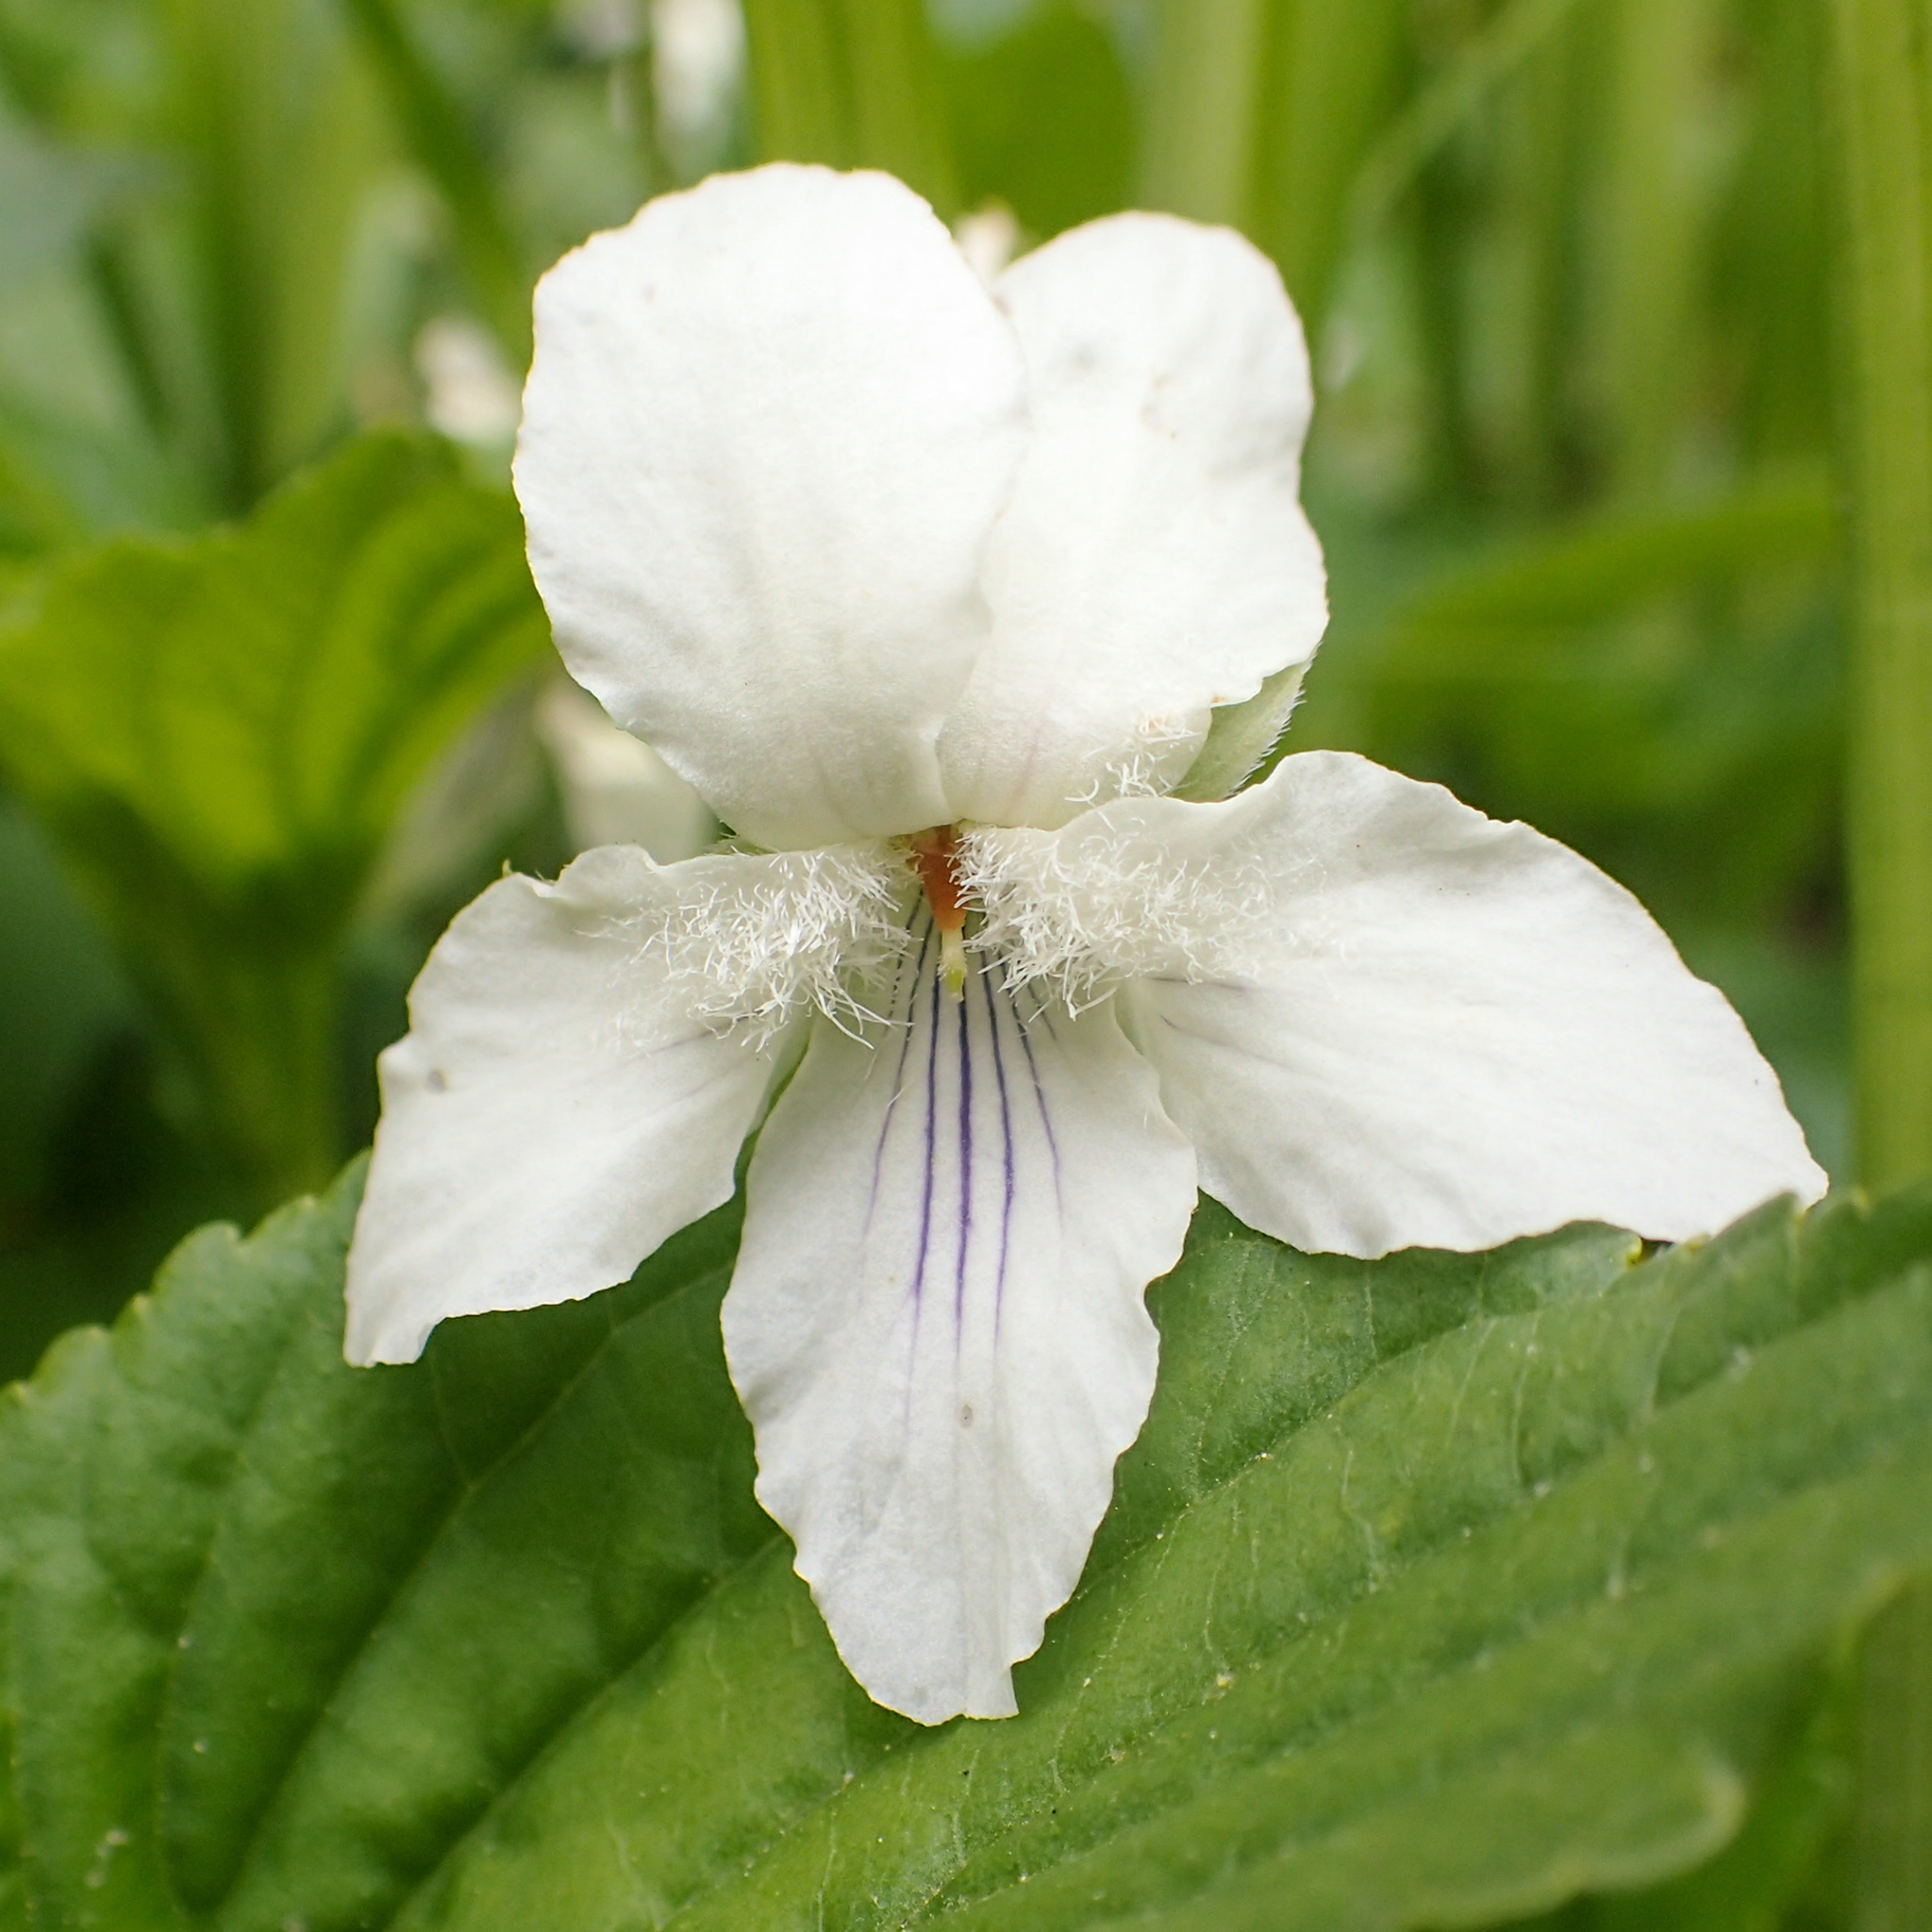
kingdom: Plantae
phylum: Tracheophyta
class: Magnoliopsida
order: Malpighiales
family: Violaceae
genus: Viola
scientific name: Viola striata
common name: Cream violet
